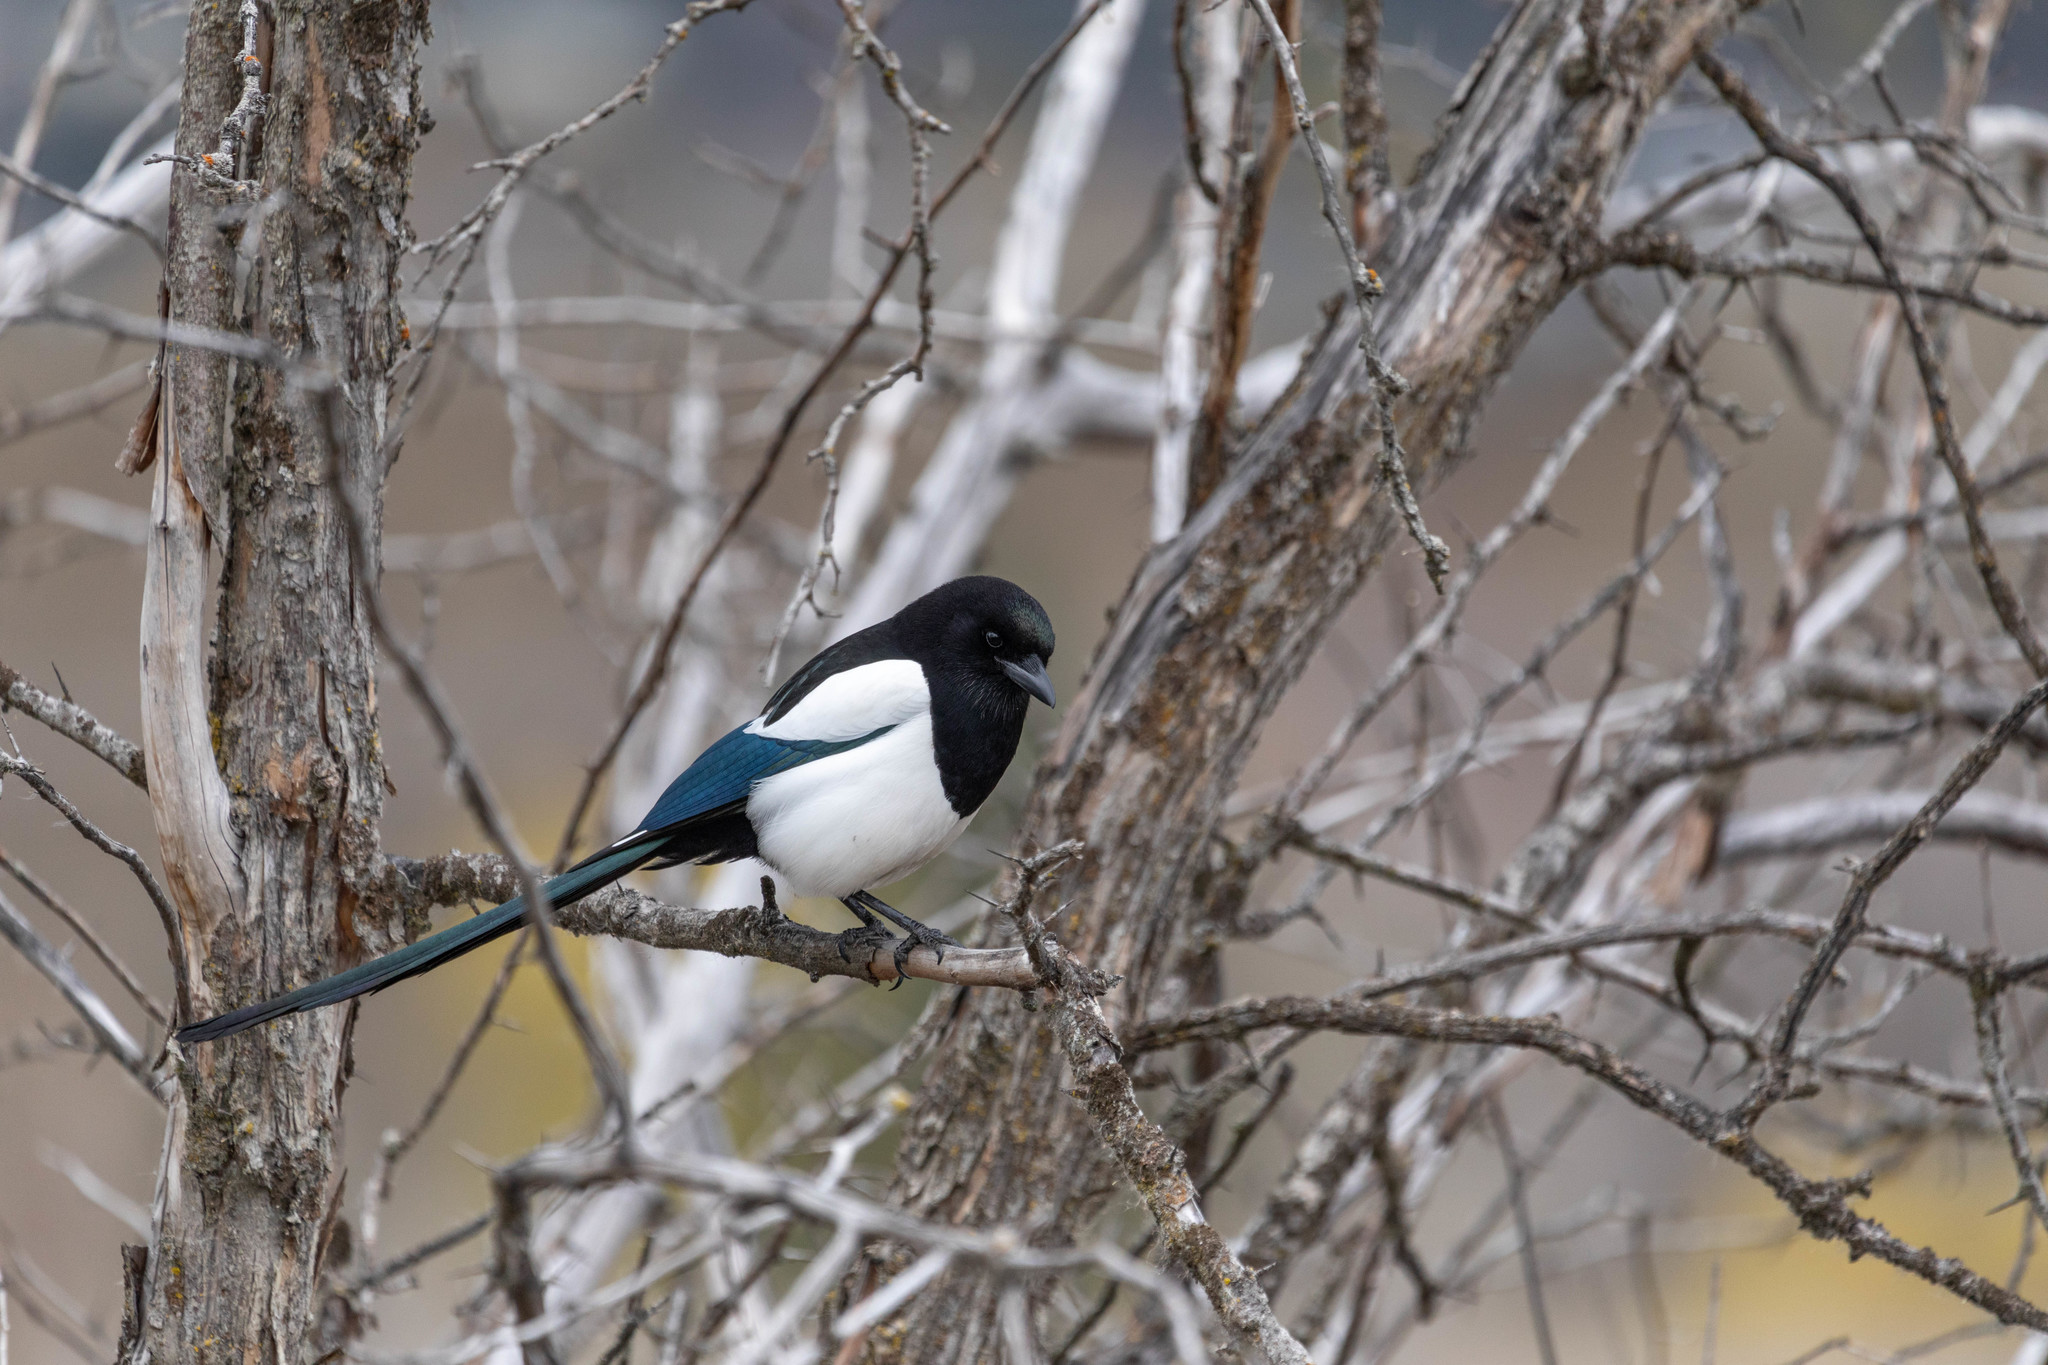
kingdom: Animalia
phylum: Chordata
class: Aves
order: Passeriformes
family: Corvidae
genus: Pica
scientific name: Pica hudsonia
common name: Black-billed magpie
